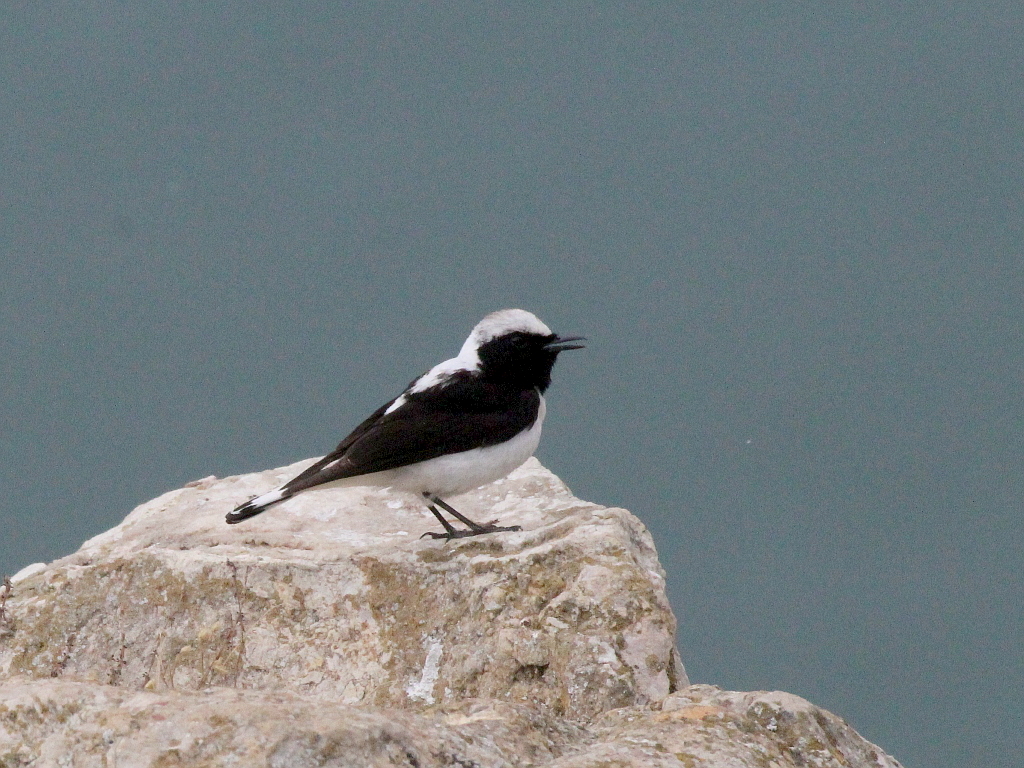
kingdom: Animalia
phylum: Chordata
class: Aves
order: Passeriformes
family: Muscicapidae
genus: Oenanthe
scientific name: Oenanthe
